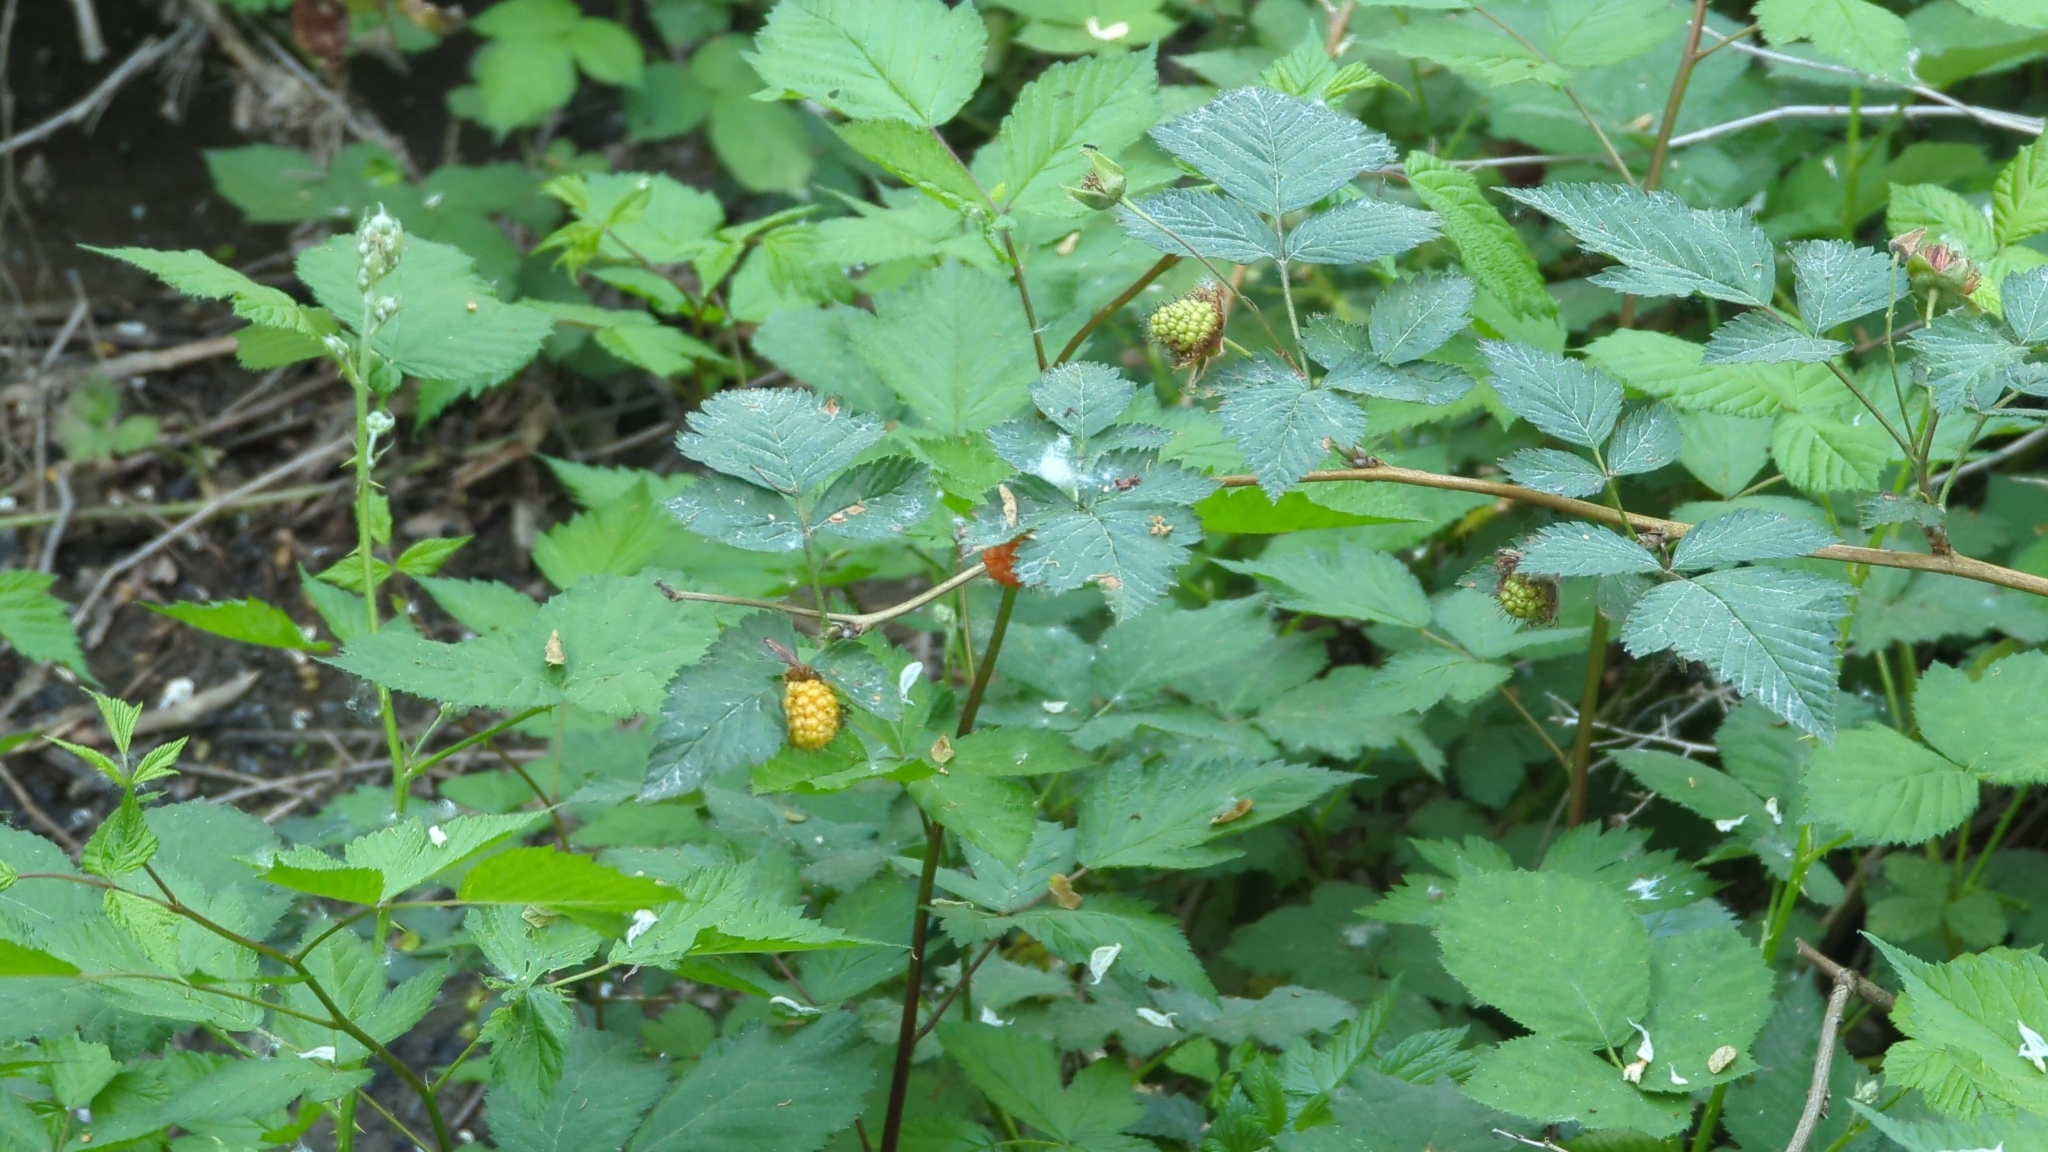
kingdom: Plantae
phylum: Tracheophyta
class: Magnoliopsida
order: Rosales
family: Rosaceae
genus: Rubus
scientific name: Rubus spectabilis
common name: Salmonberry
